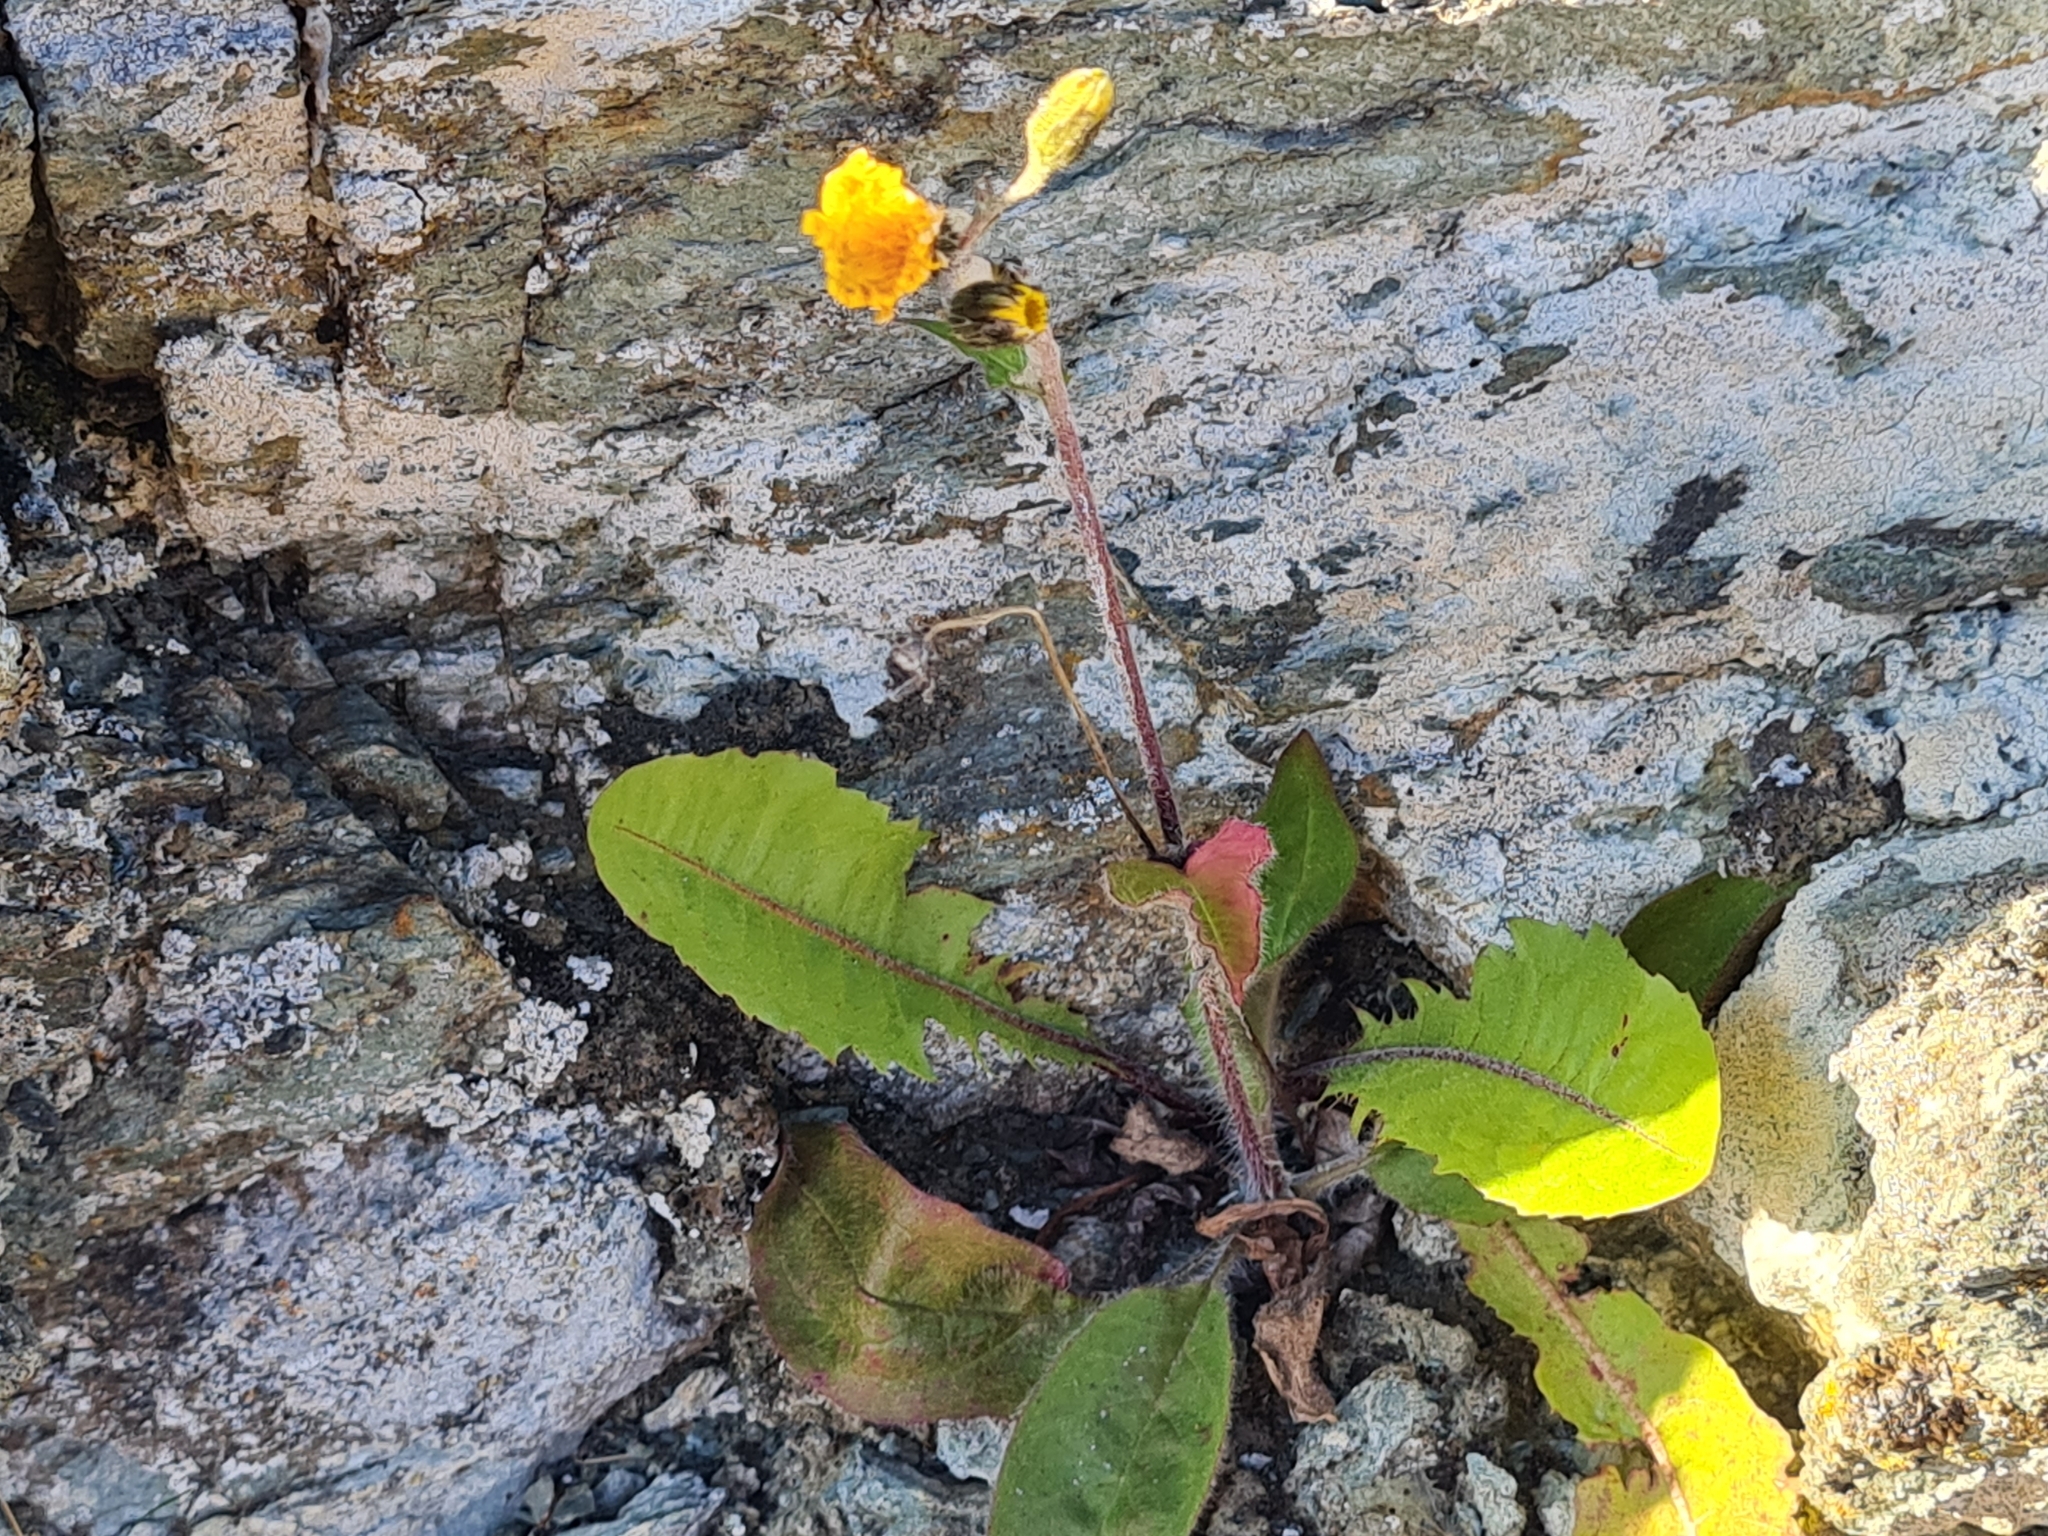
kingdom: Plantae
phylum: Tracheophyta
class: Magnoliopsida
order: Asterales
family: Asteraceae
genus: Taraxacum
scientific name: Taraxacum officinale
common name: Common dandelion
